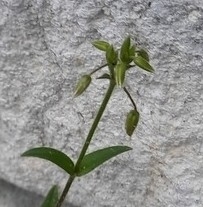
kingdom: Plantae
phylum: Tracheophyta
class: Magnoliopsida
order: Caryophyllales
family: Caryophyllaceae
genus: Cerastium
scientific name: Cerastium holosteoides
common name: Big chickweed
